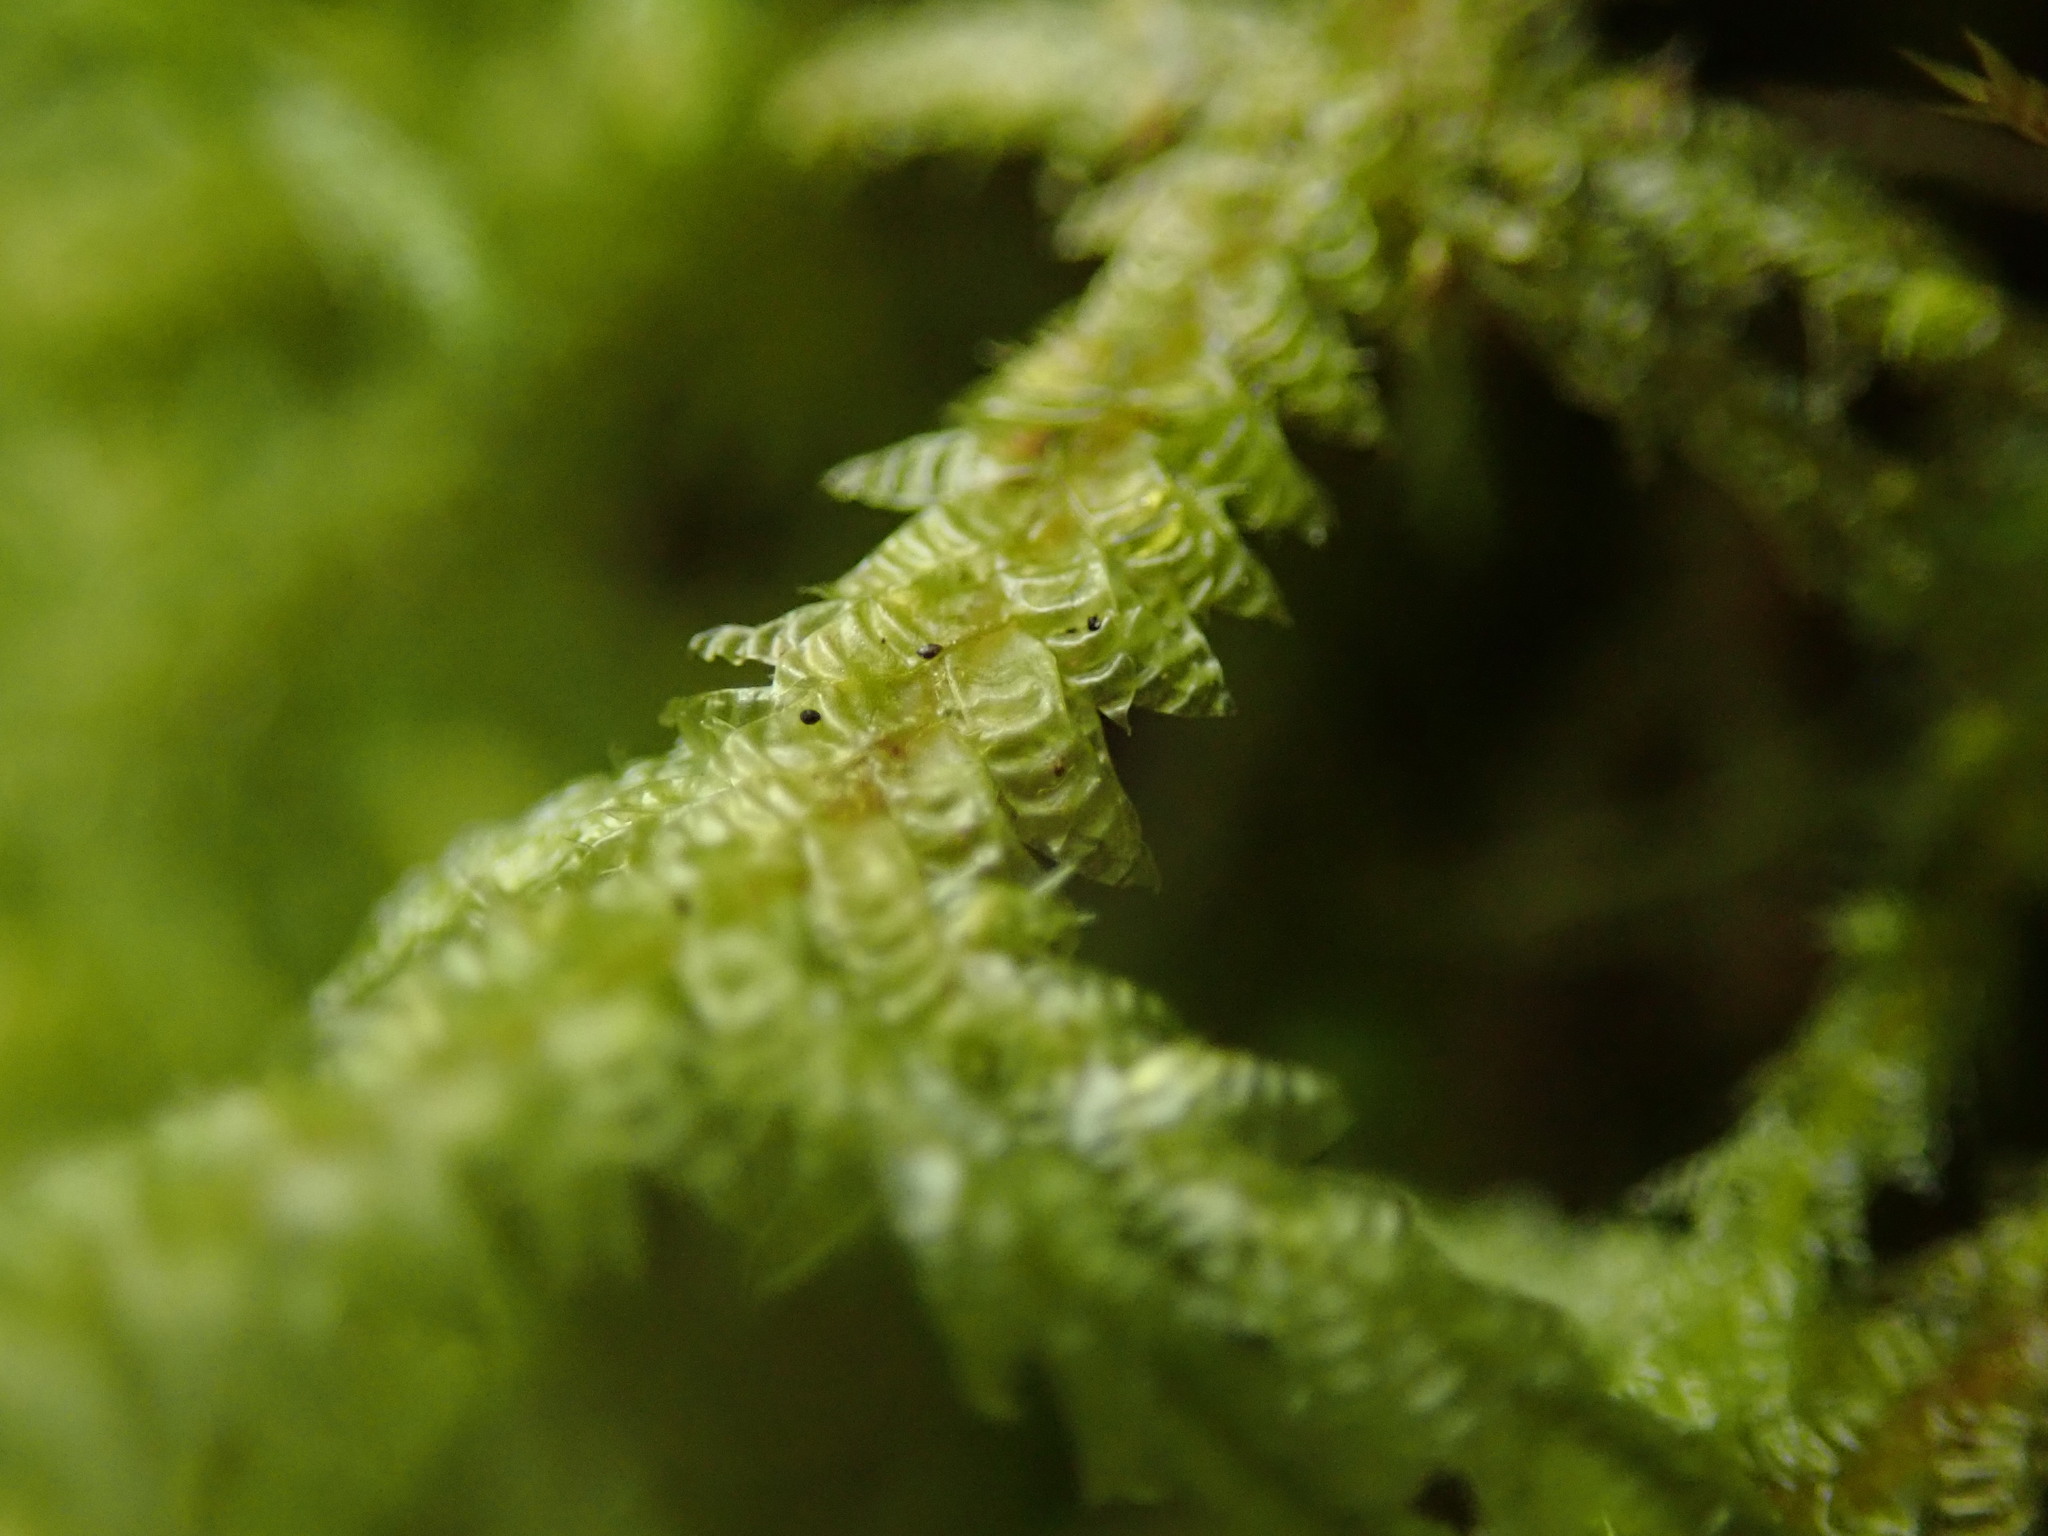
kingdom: Plantae
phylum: Bryophyta
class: Bryopsida
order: Hypnales
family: Neckeraceae
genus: Neckera
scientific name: Neckera douglasii
